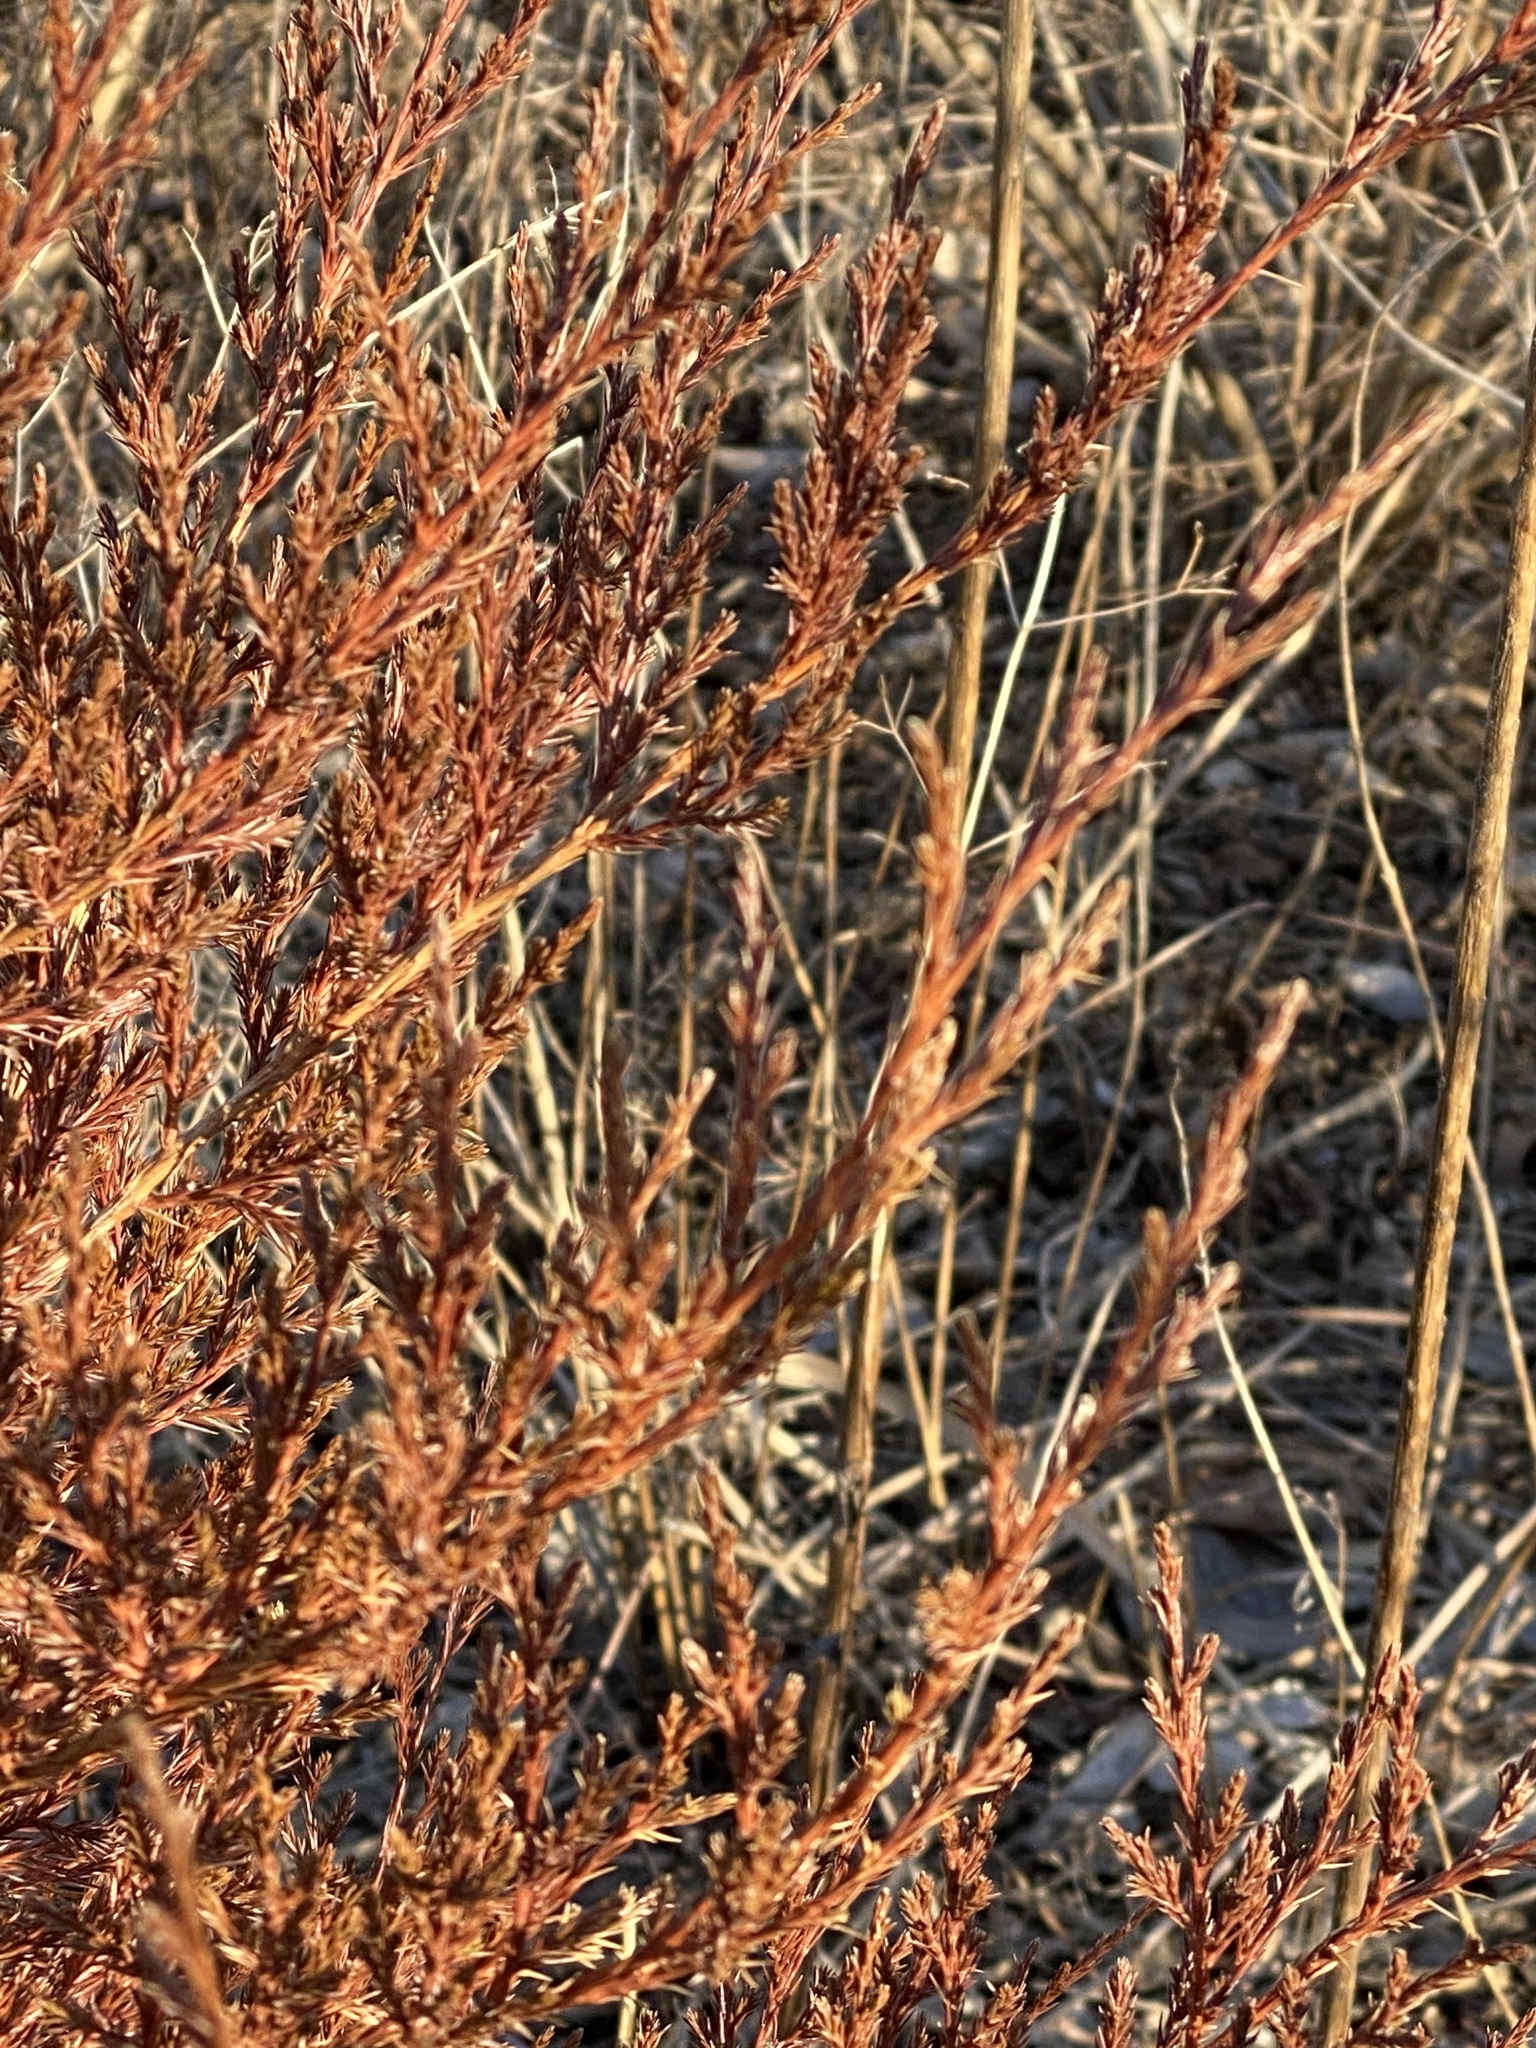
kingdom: Plantae
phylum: Tracheophyta
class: Pinopsida
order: Pinales
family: Cupressaceae
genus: Juniperus
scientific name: Juniperus virginiana
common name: Red juniper
